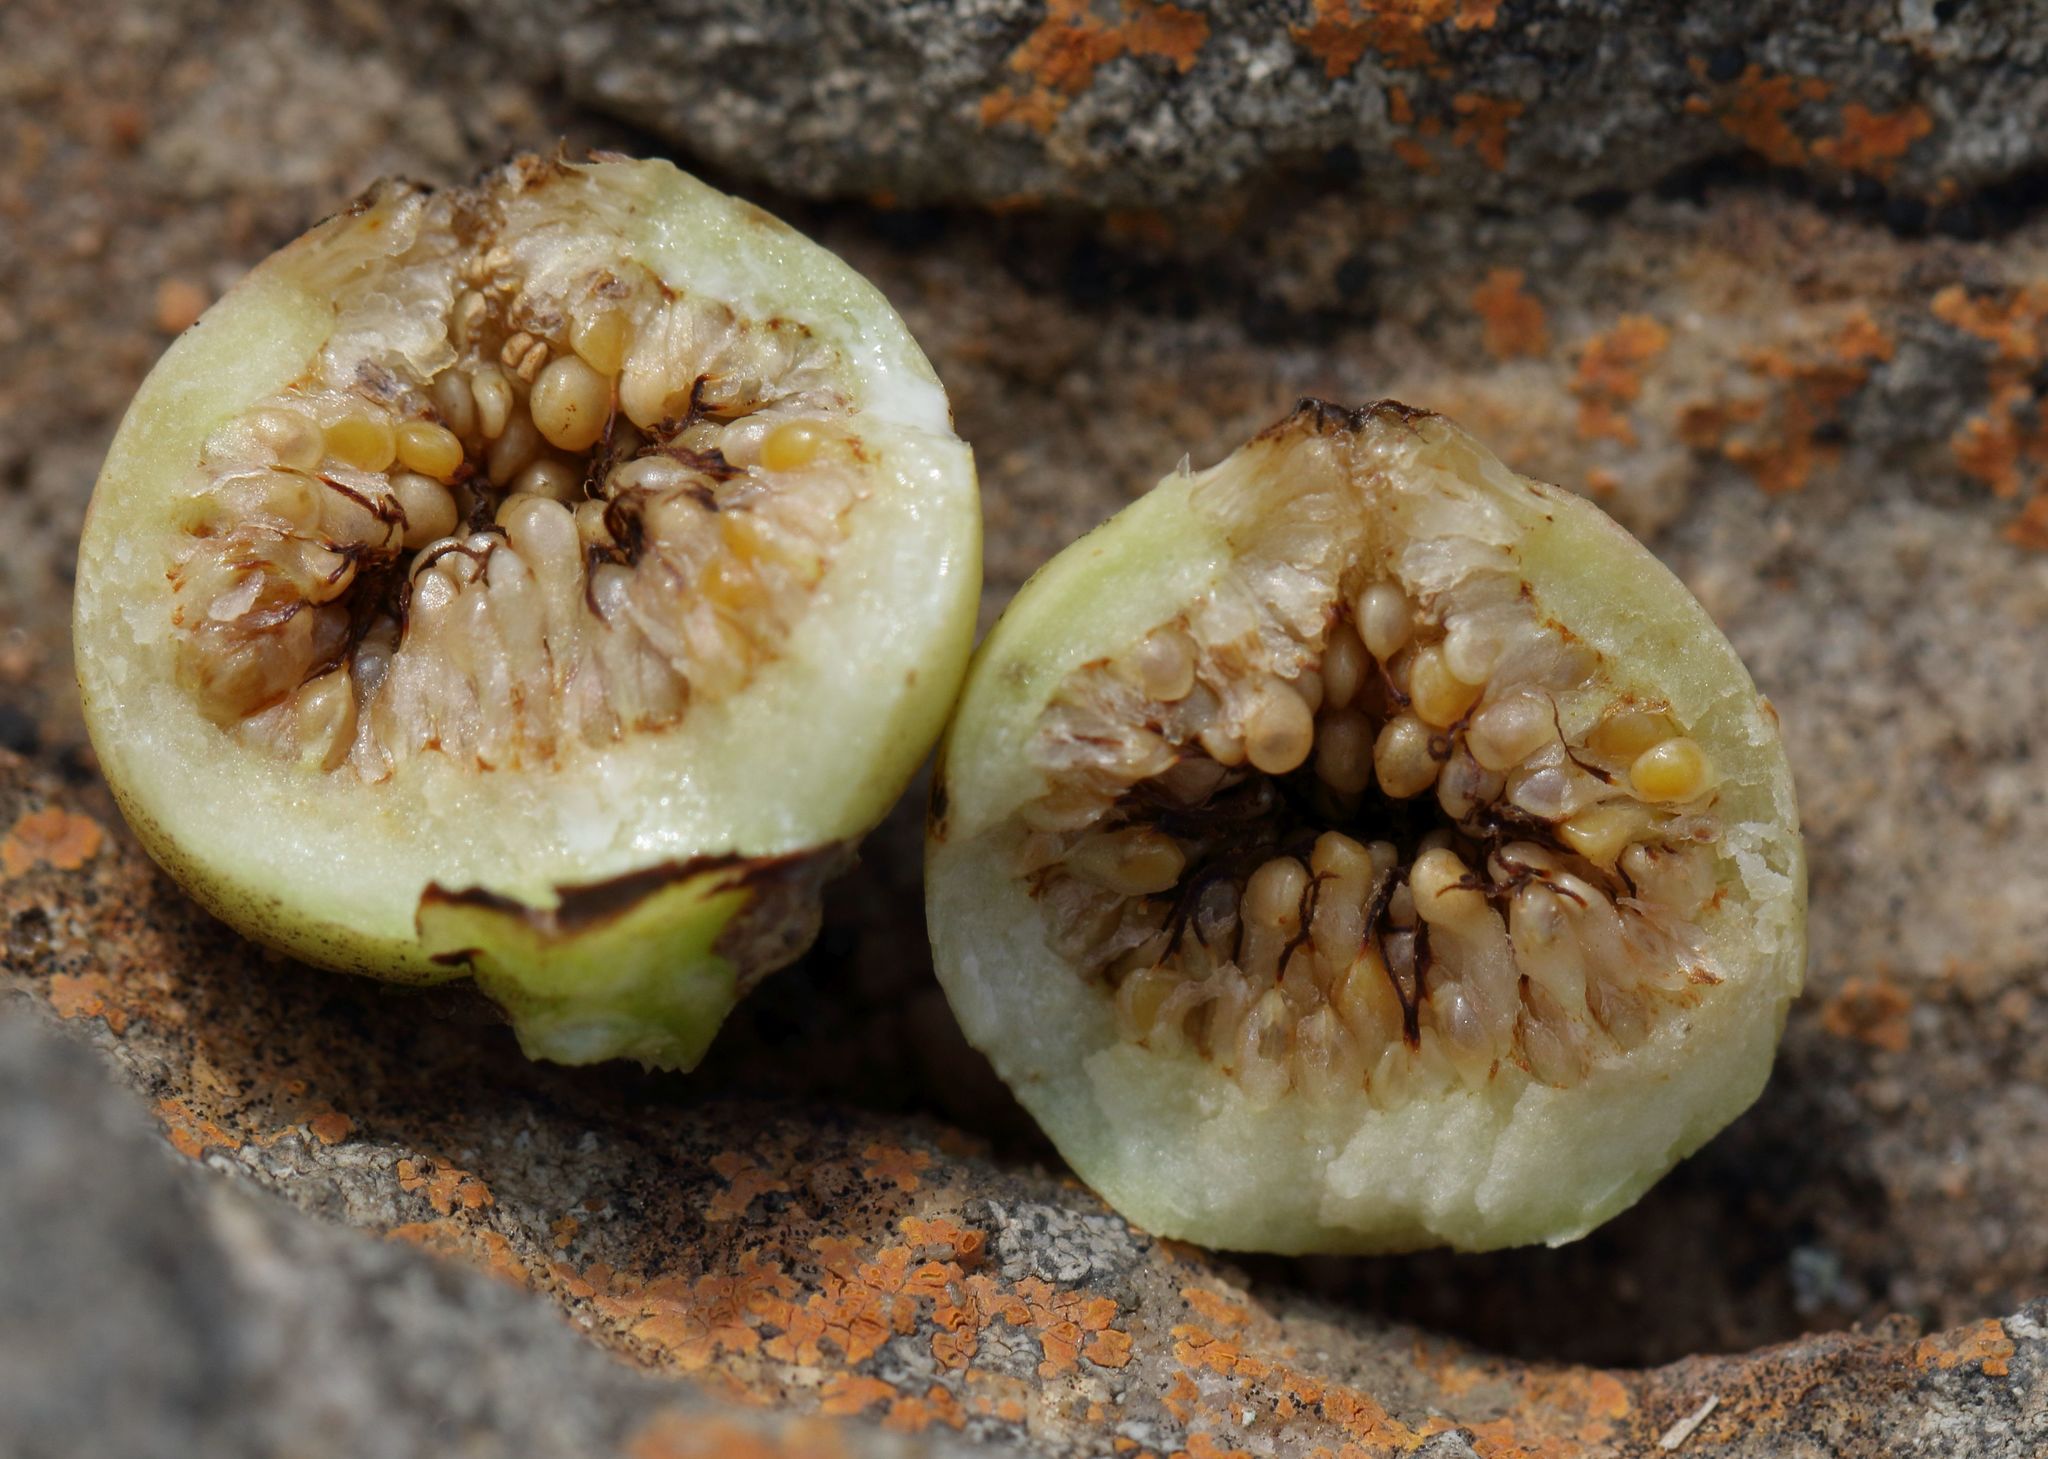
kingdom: Plantae
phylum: Tracheophyta
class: Magnoliopsida
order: Rosales
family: Moraceae
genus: Ficus
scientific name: Ficus ingens
